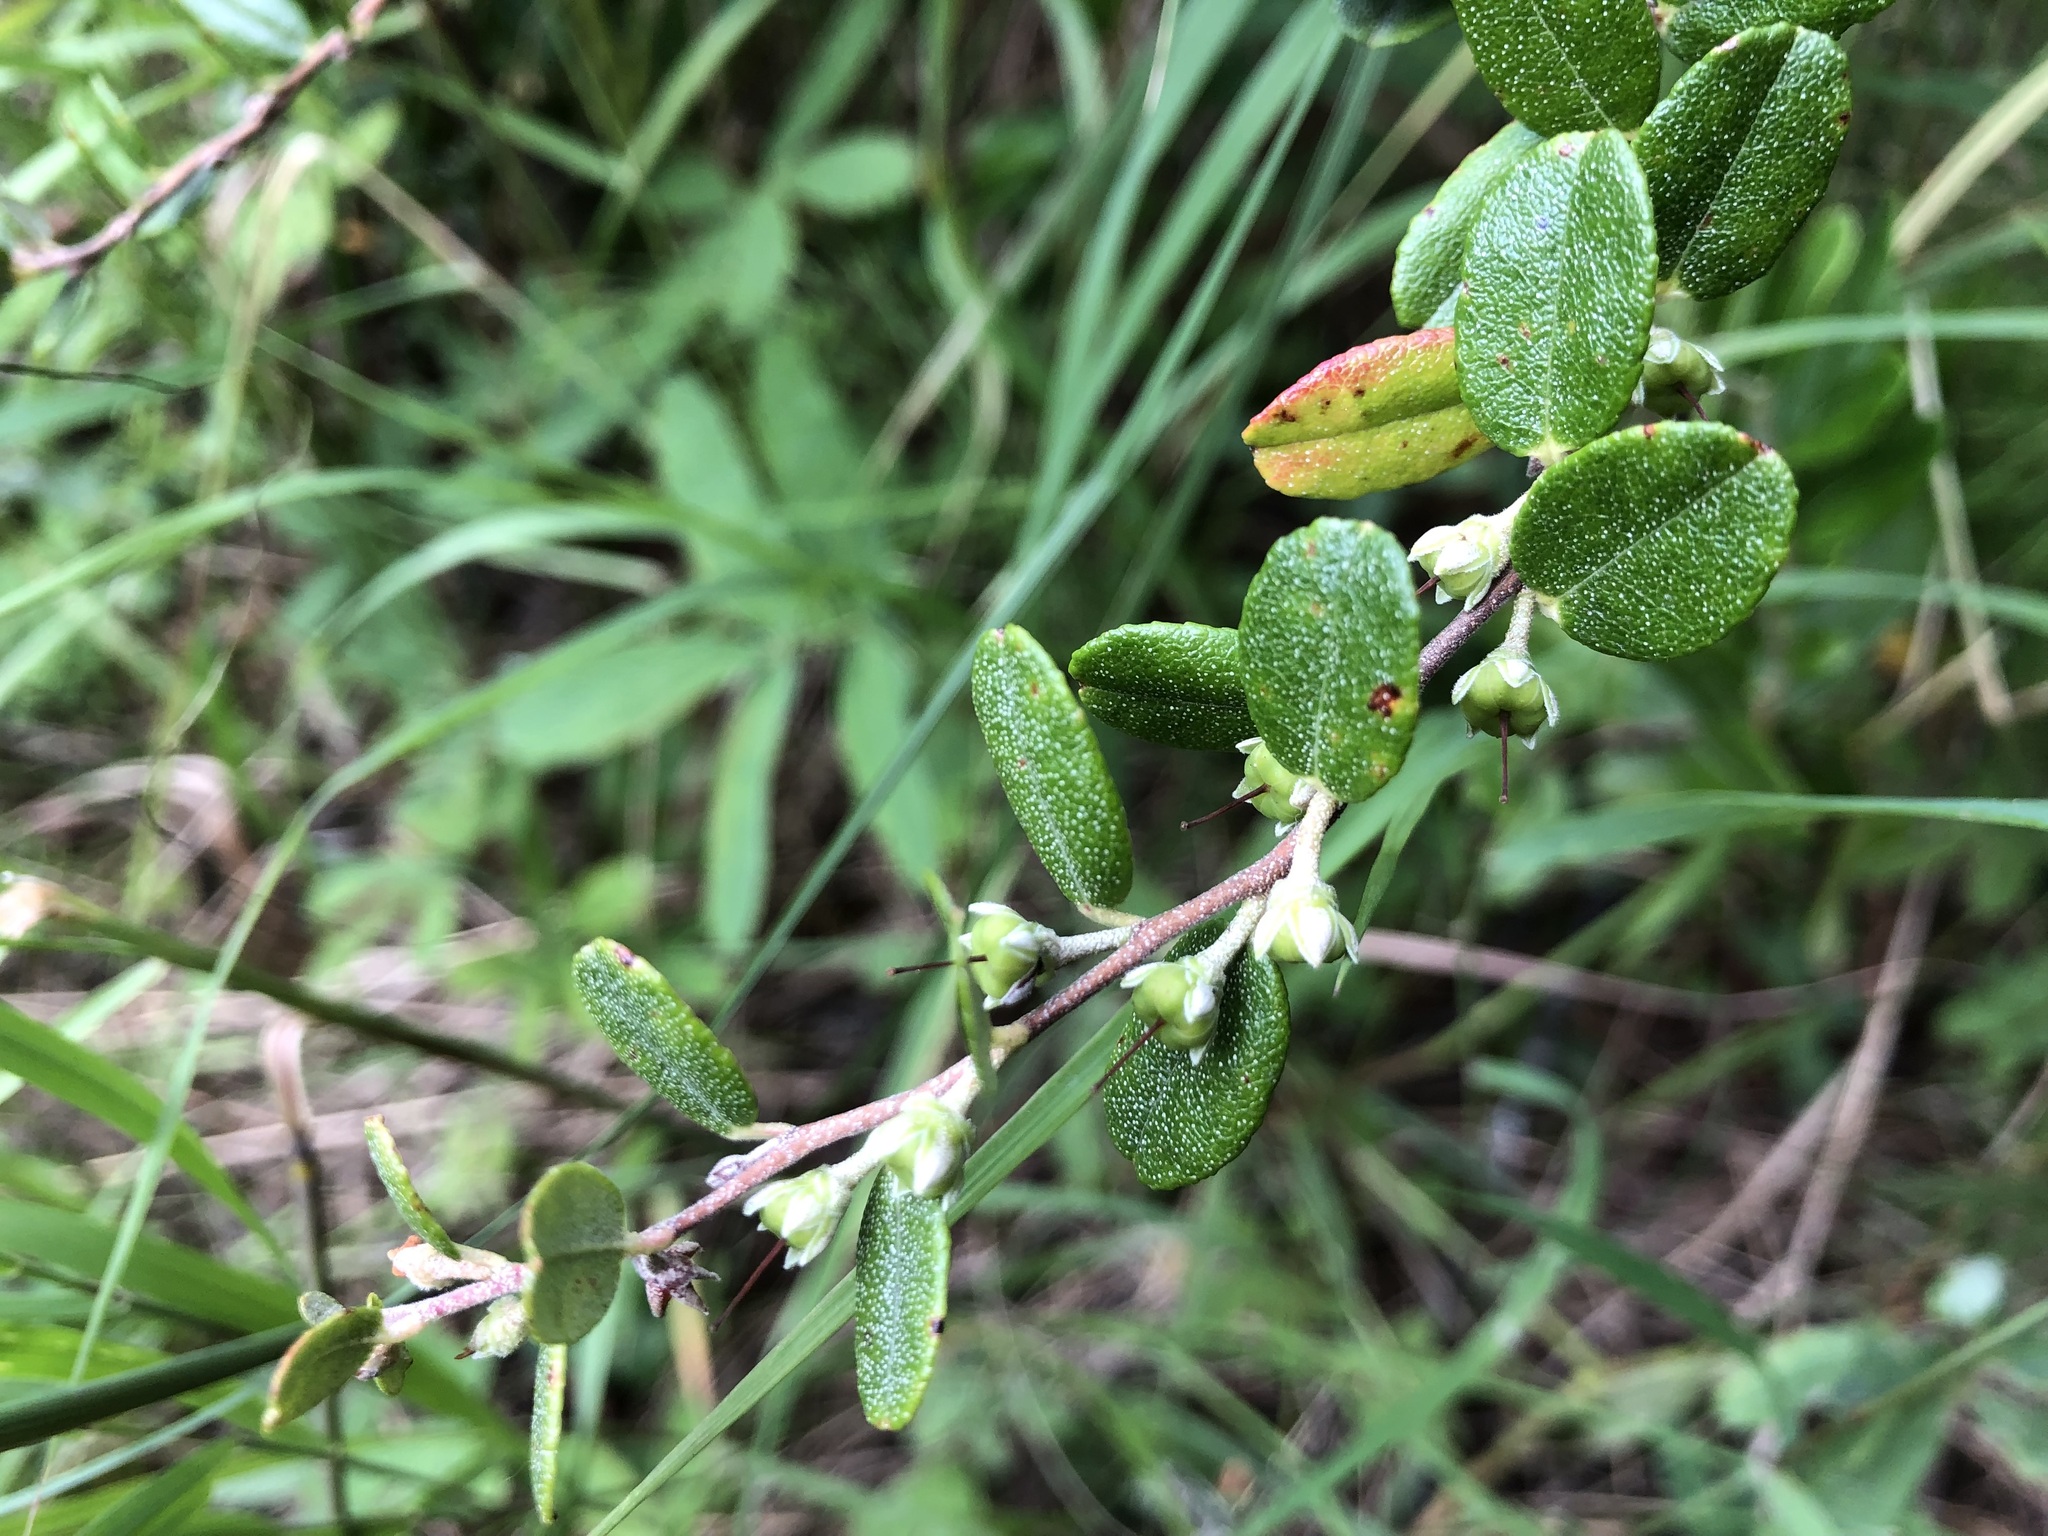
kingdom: Plantae
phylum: Tracheophyta
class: Magnoliopsida
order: Ericales
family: Ericaceae
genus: Chamaedaphne
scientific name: Chamaedaphne calyculata
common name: Leatherleaf
